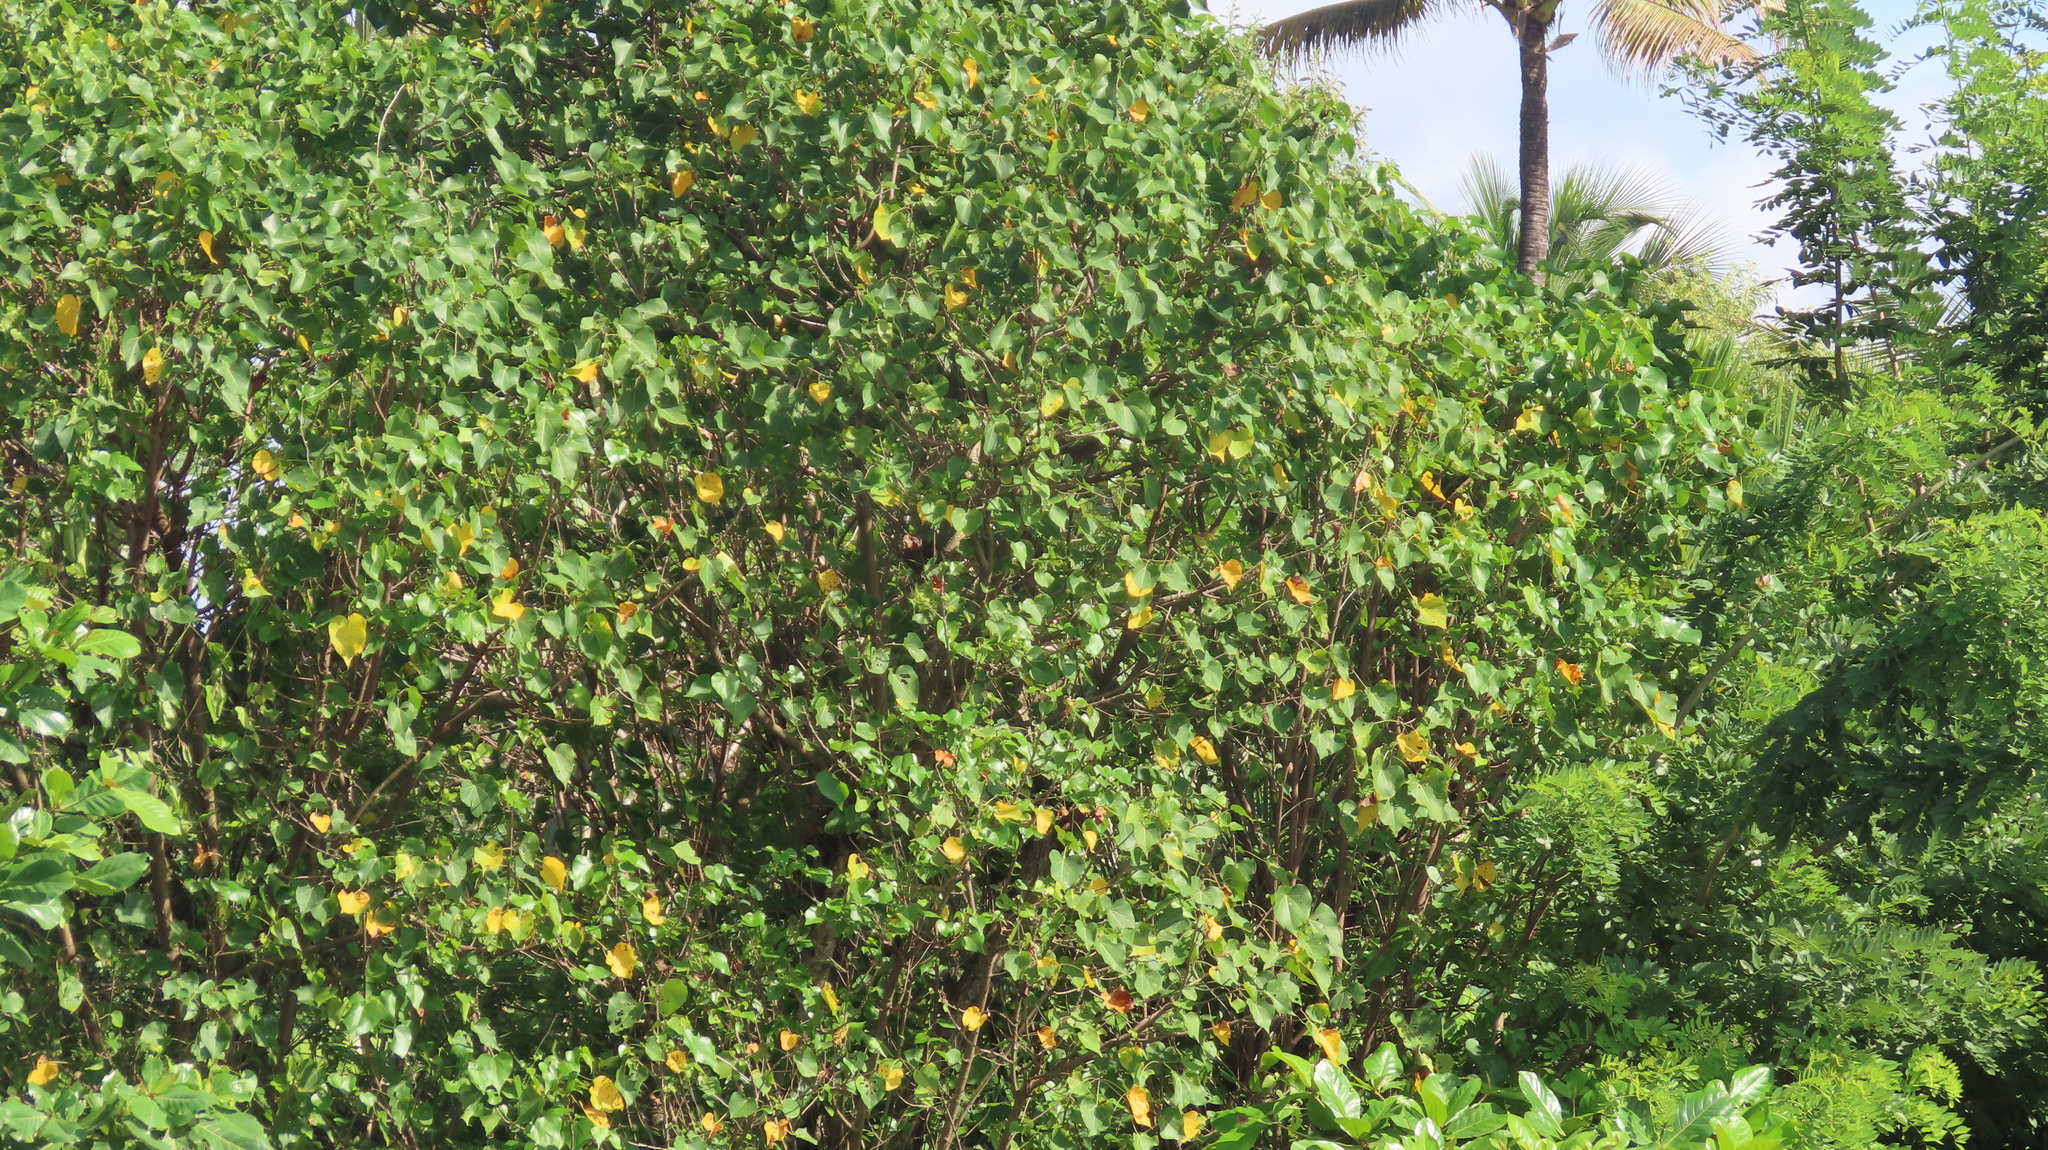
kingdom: Plantae
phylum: Tracheophyta
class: Magnoliopsida
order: Malvales
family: Malvaceae
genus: Thespesia
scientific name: Thespesia populnea
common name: Seaside mahoe
